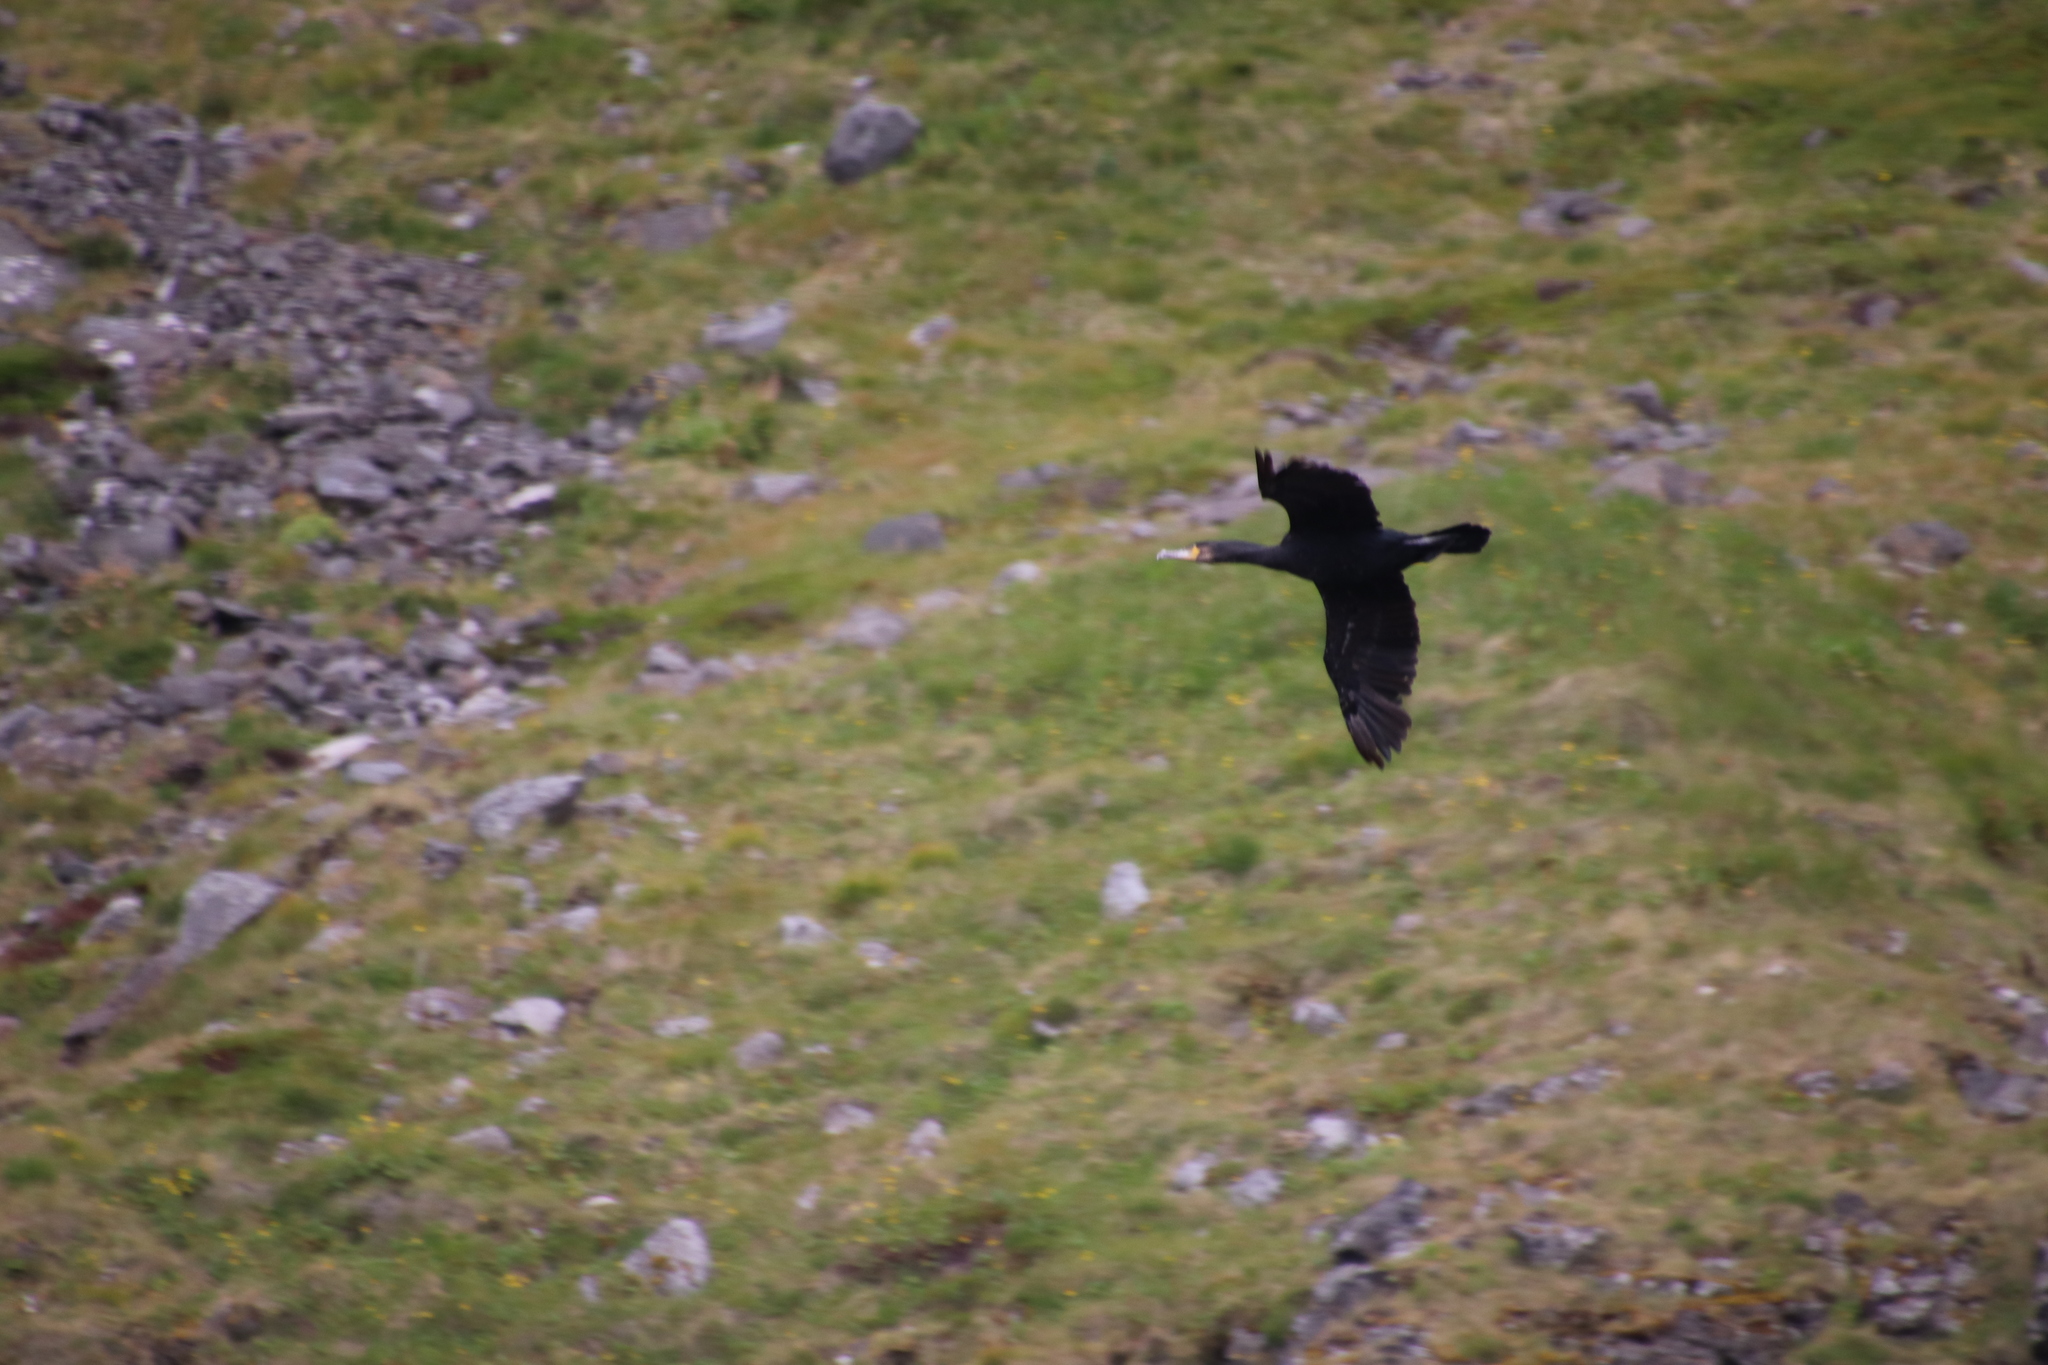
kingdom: Animalia
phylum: Chordata
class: Aves
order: Suliformes
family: Phalacrocoracidae
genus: Phalacrocorax
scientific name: Phalacrocorax carbo
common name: Great cormorant
